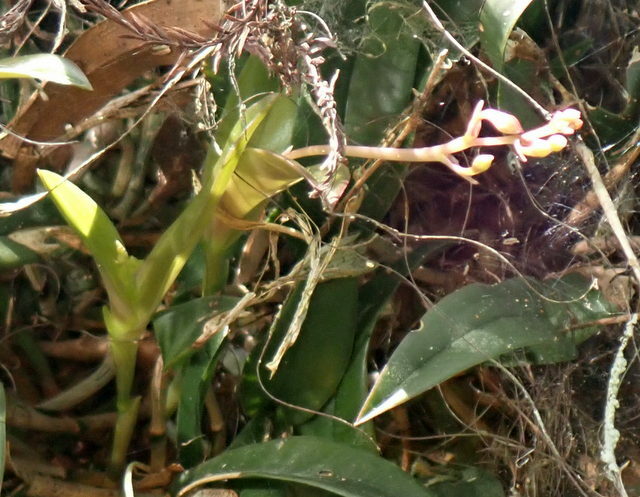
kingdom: Plantae
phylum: Tracheophyta
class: Liliopsida
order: Asparagales
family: Orchidaceae
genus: Epidendrum
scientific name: Epidendrum conopseum
